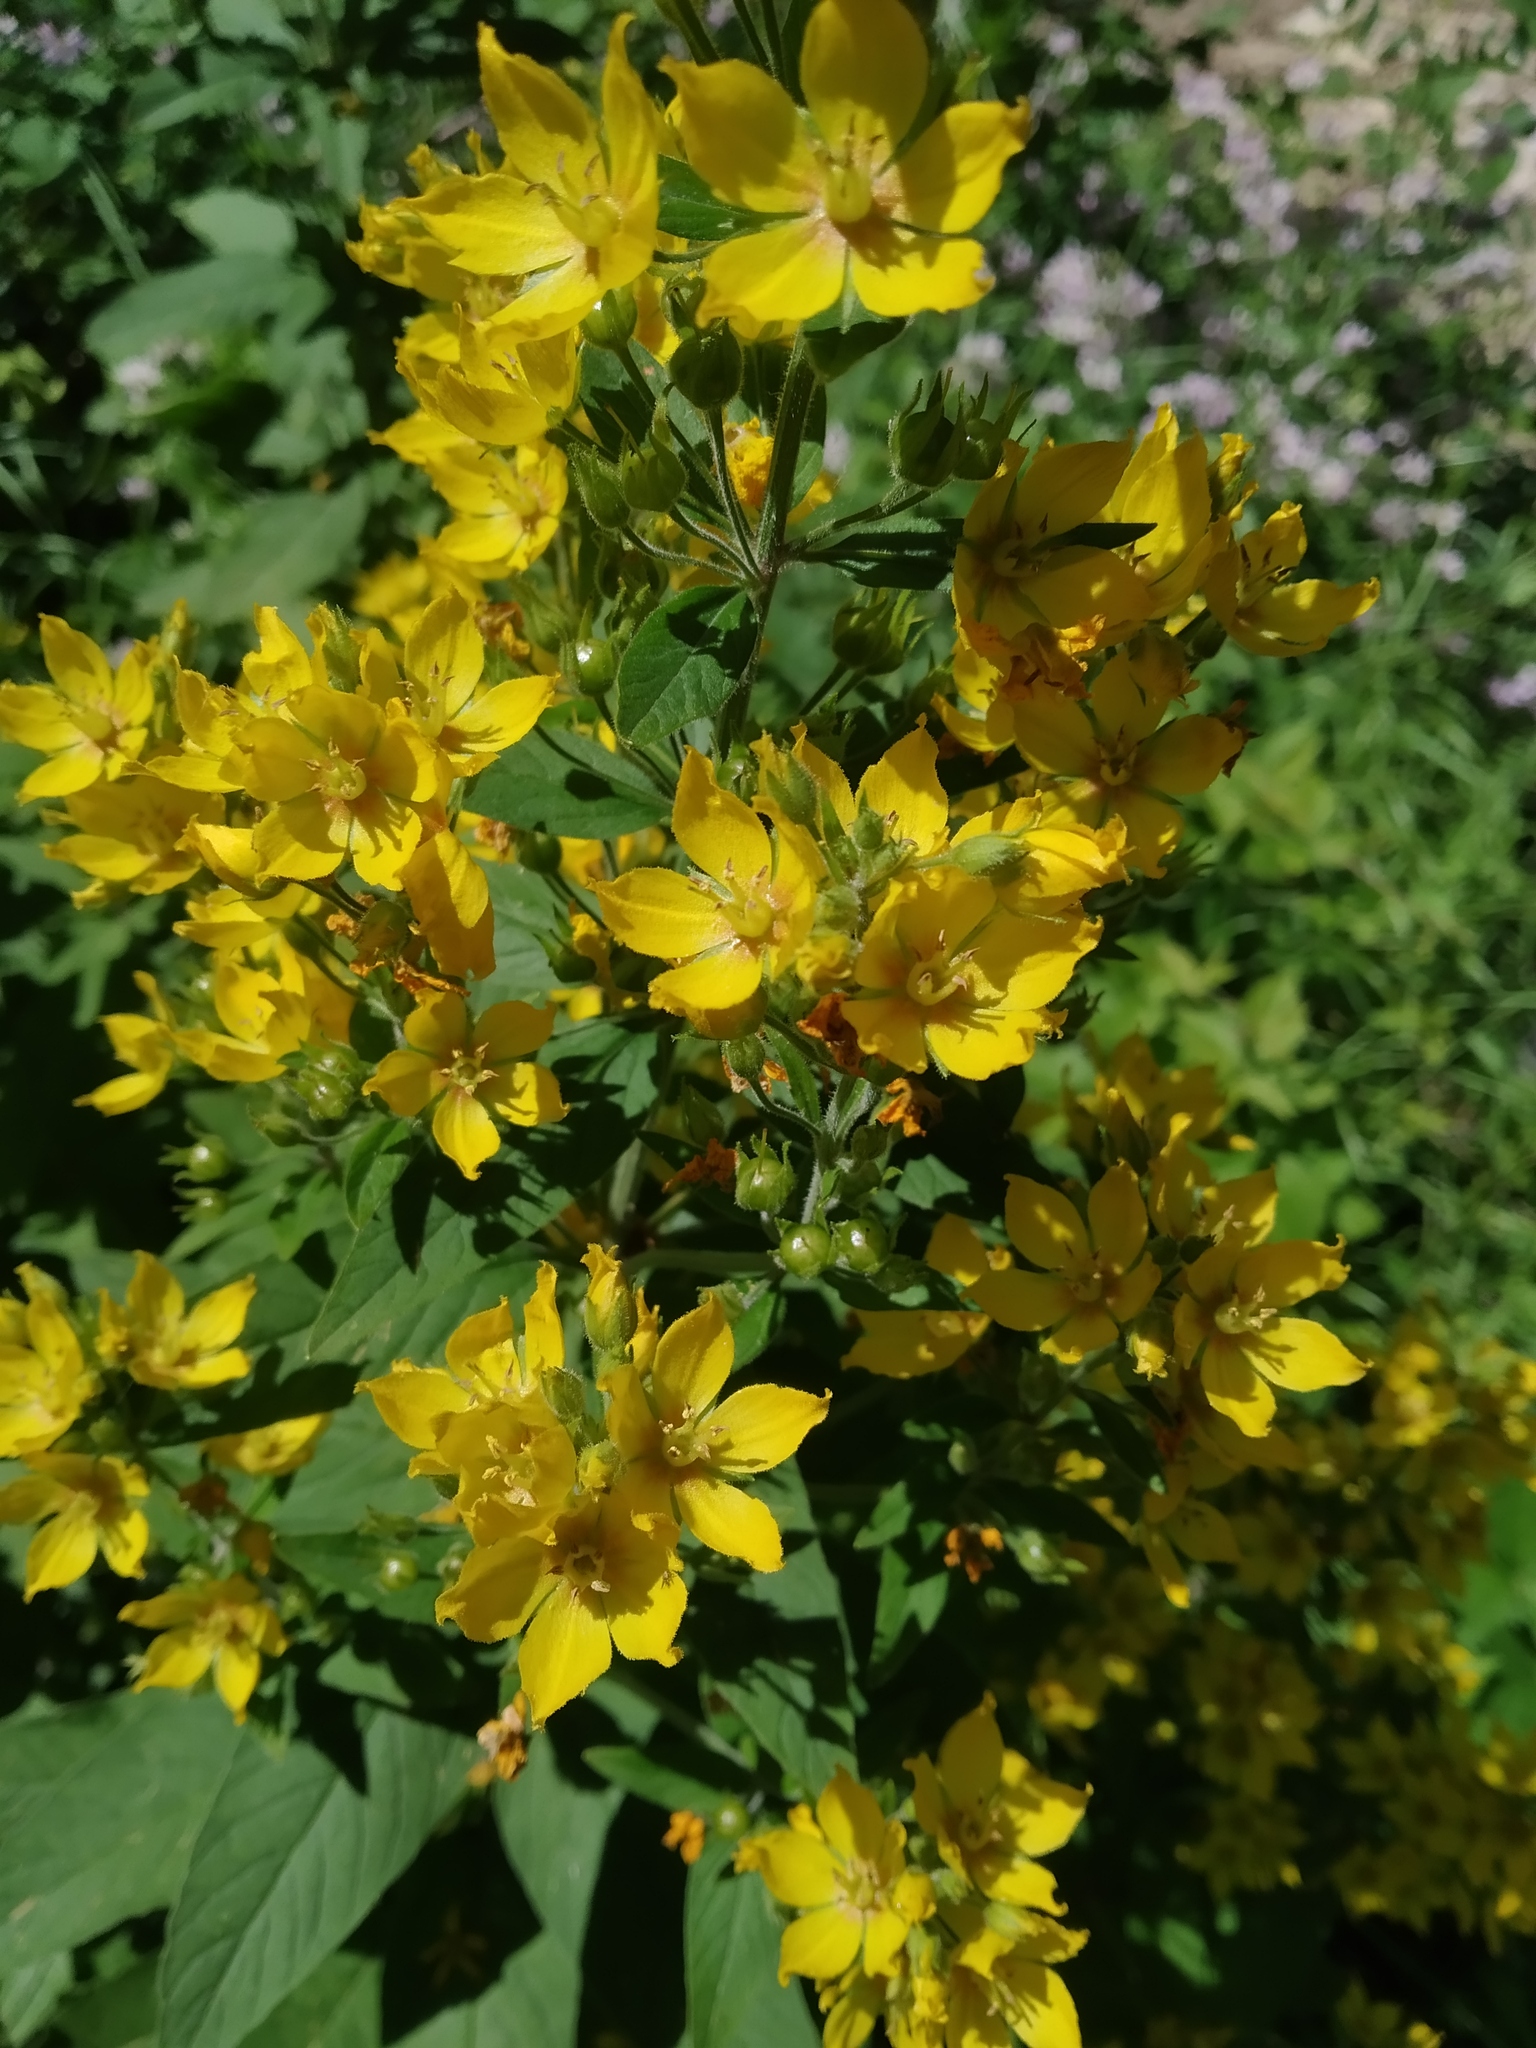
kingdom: Plantae
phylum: Tracheophyta
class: Magnoliopsida
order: Ericales
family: Primulaceae
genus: Lysimachia
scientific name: Lysimachia punctata
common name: Dotted loosestrife
